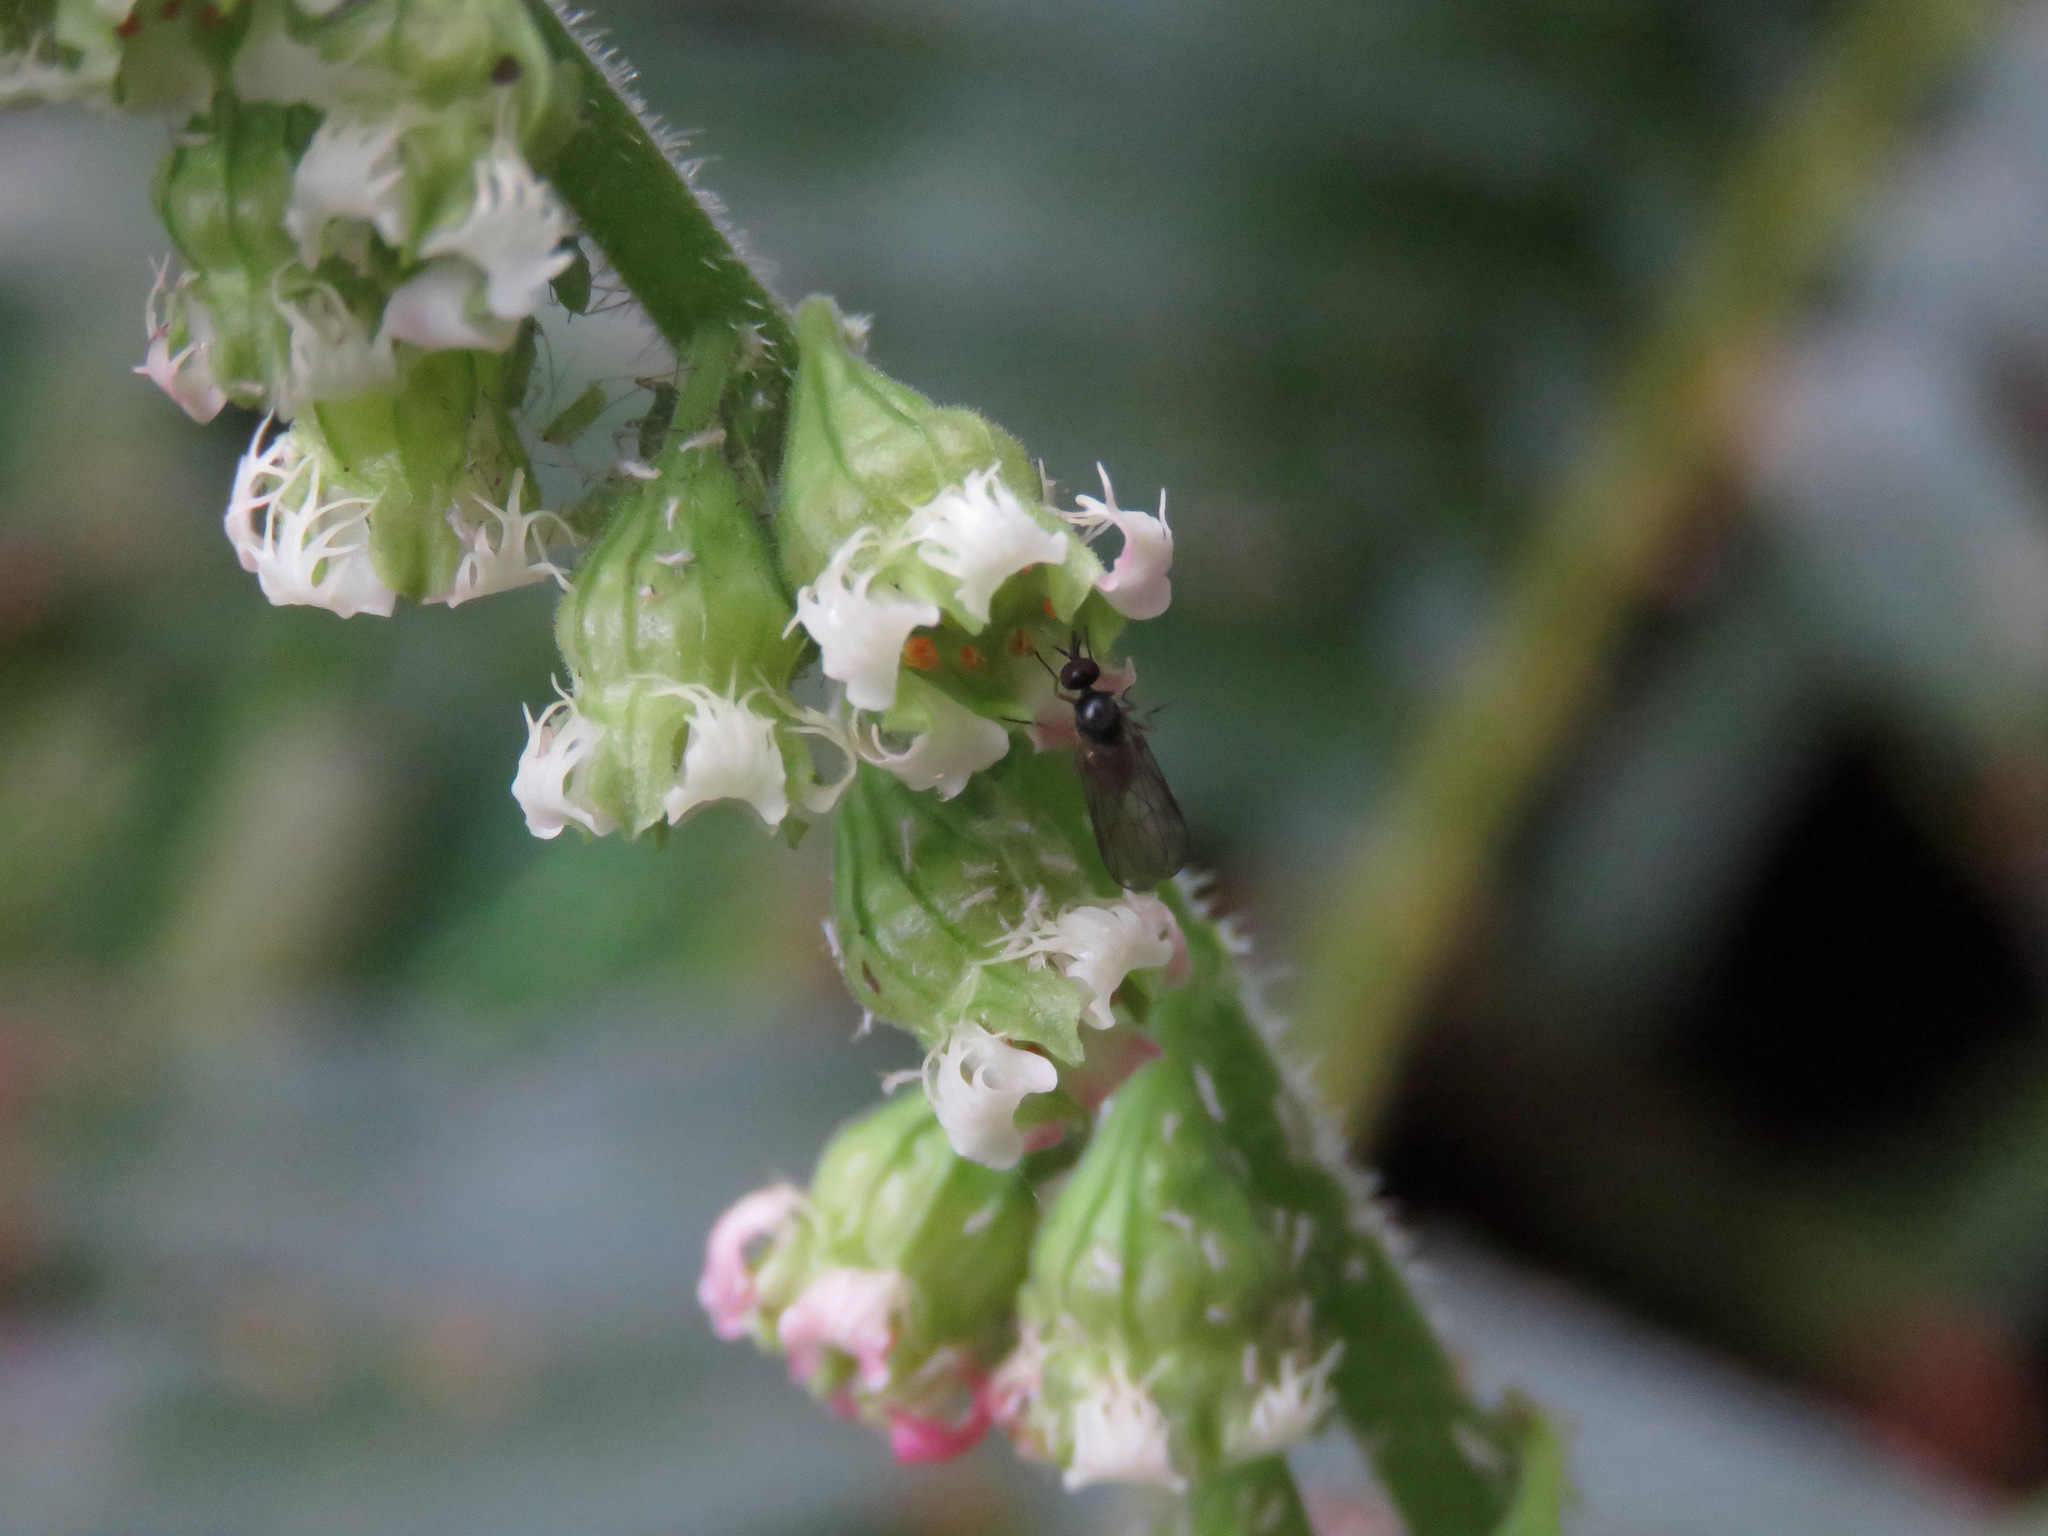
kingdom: Plantae
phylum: Tracheophyta
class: Magnoliopsida
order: Saxifragales
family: Saxifragaceae
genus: Tellima
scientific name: Tellima grandiflora
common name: Fringecups
